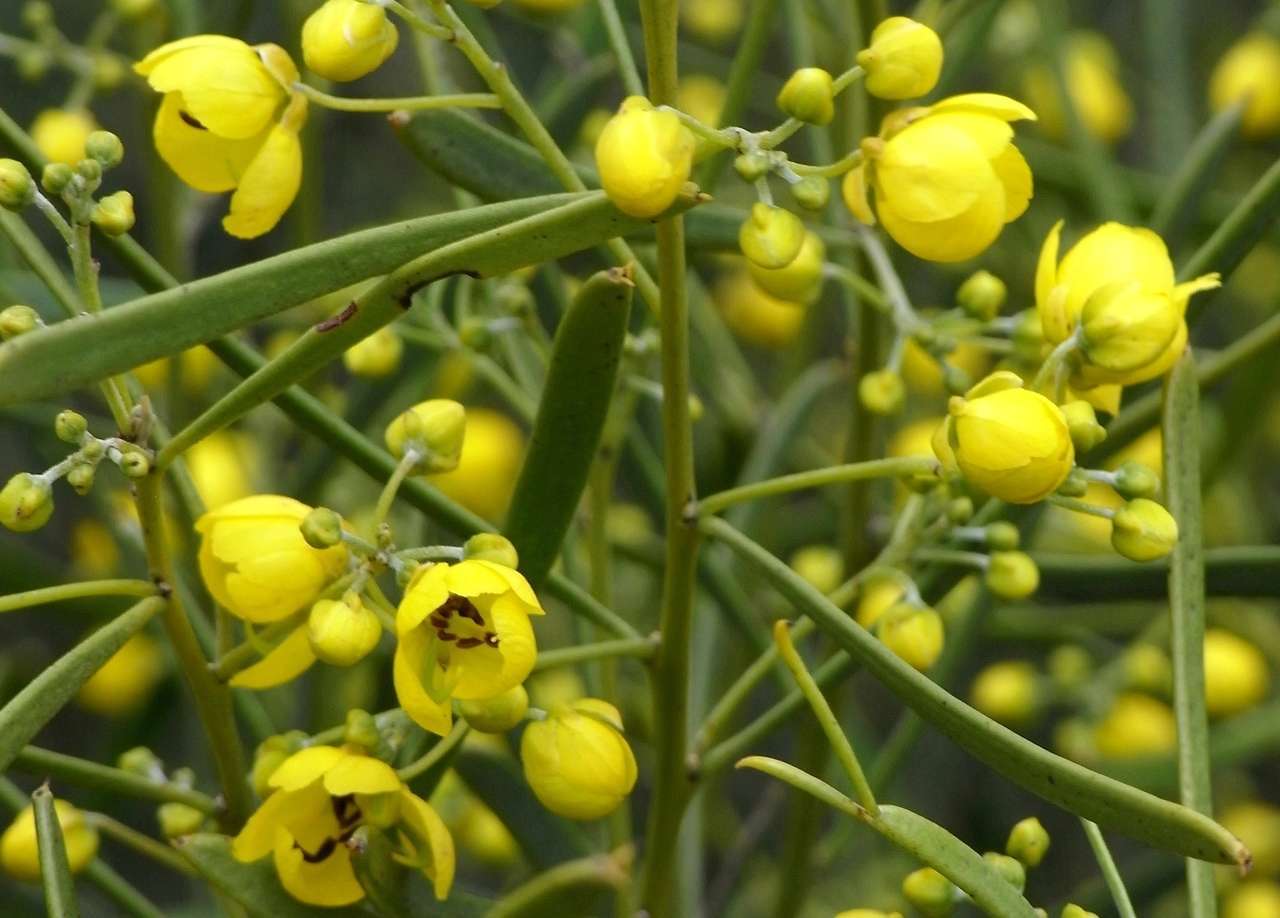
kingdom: Plantae
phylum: Tracheophyta
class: Magnoliopsida
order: Fabales
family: Fabaceae
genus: Senna
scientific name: Senna artemisioides
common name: Burnt-leaved acacia
